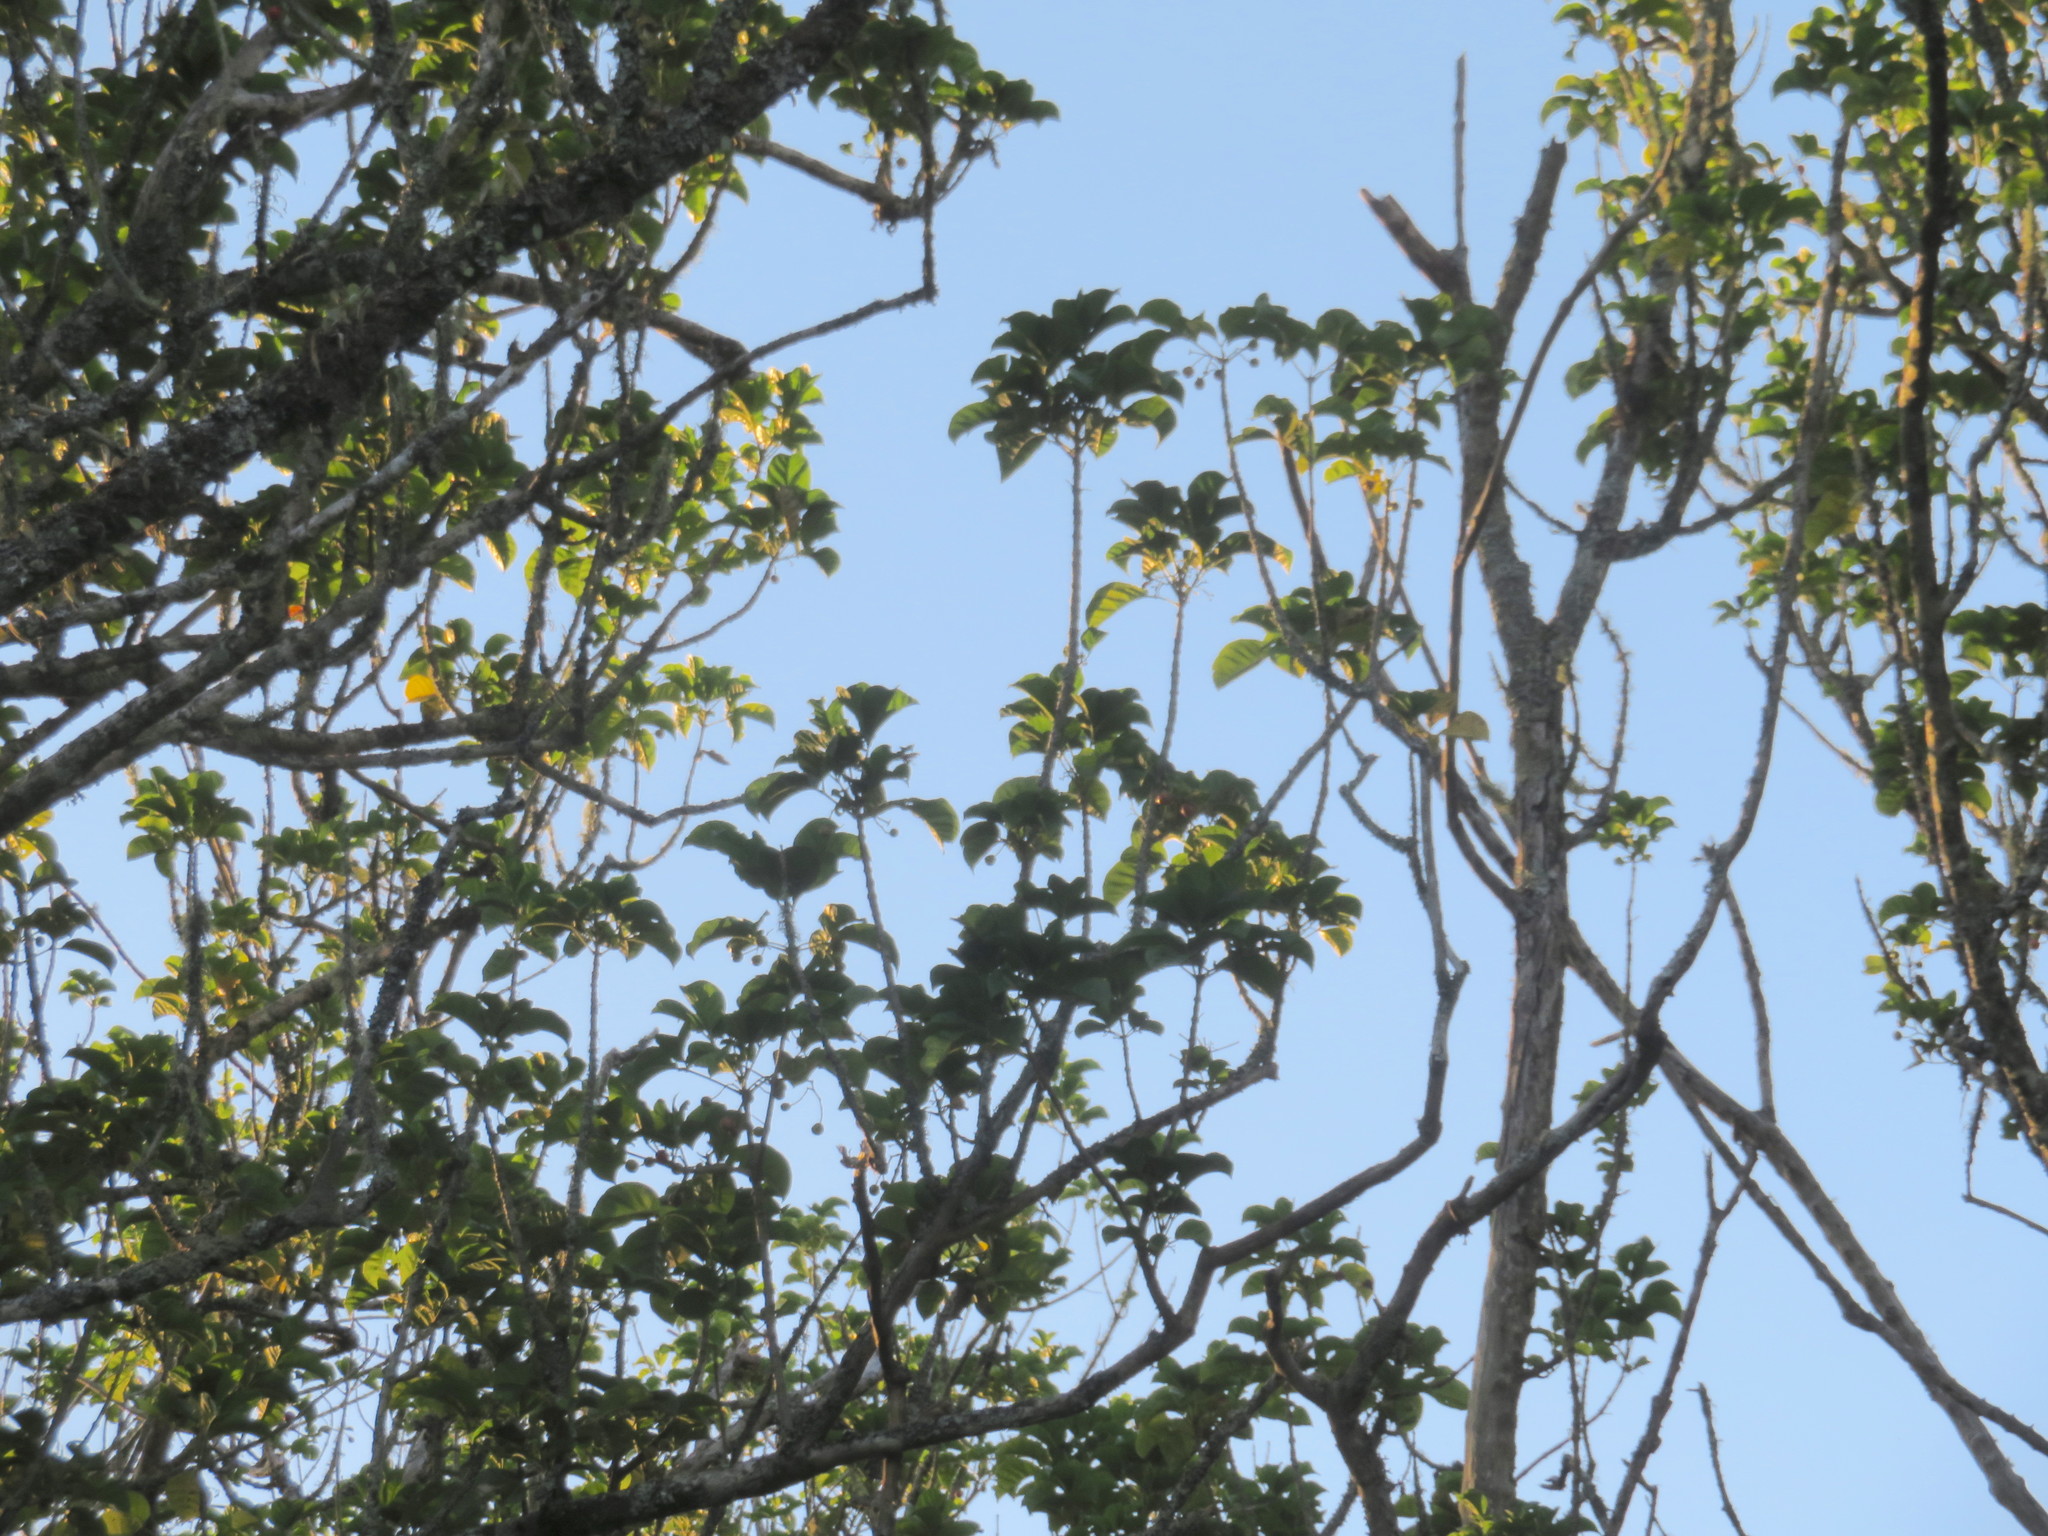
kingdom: Plantae
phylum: Tracheophyta
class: Magnoliopsida
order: Lamiales
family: Lamiaceae
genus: Vitex
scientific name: Vitex lucens
